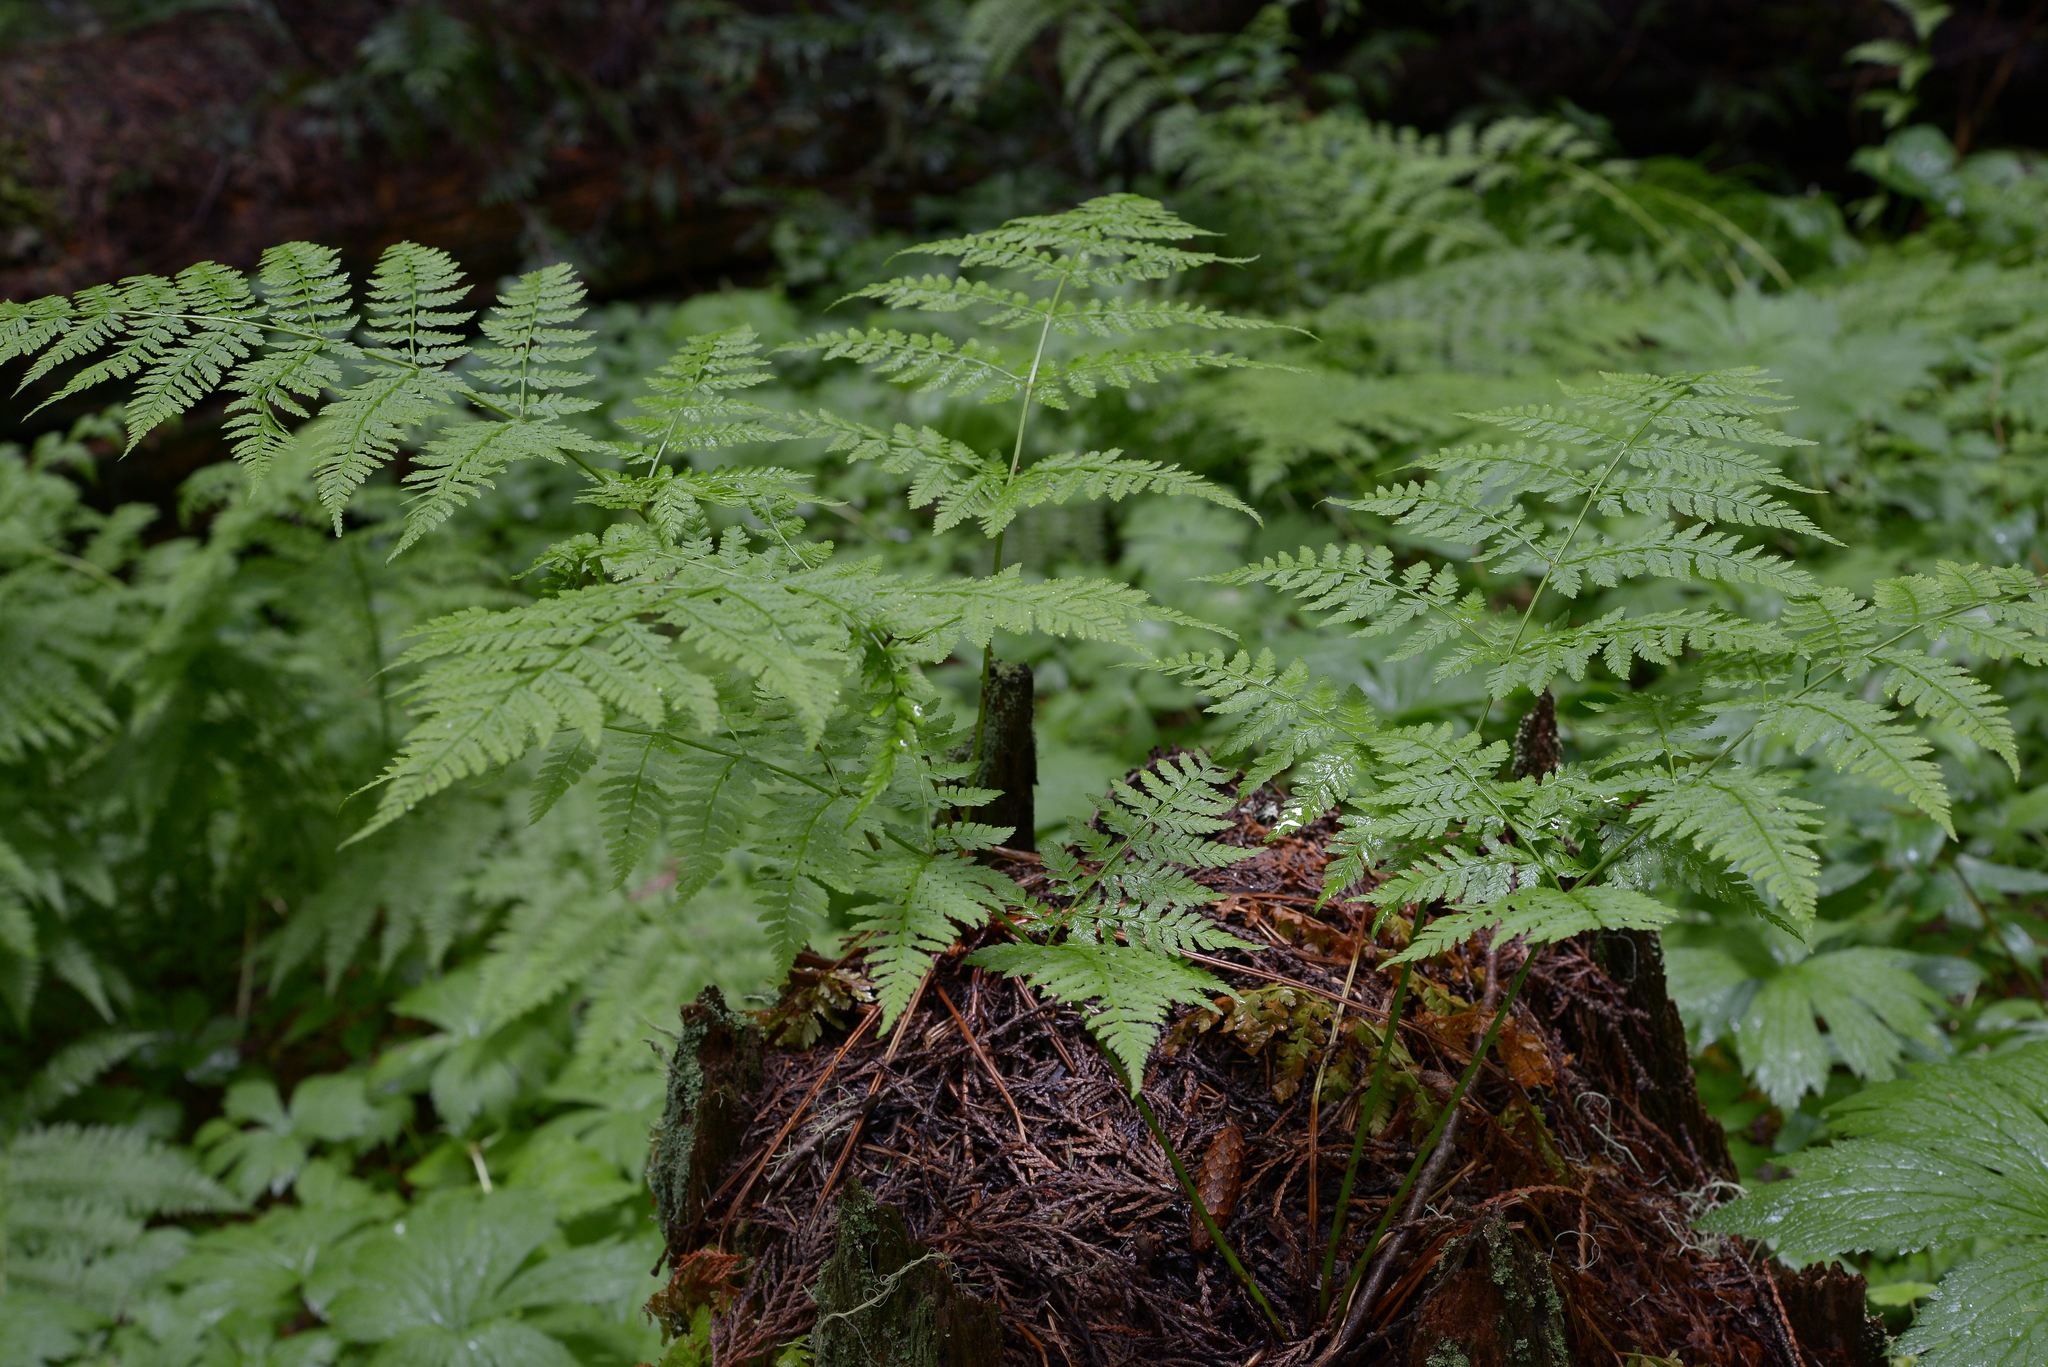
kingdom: Plantae
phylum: Tracheophyta
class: Polypodiopsida
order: Polypodiales
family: Dryopteridaceae
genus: Dryopteris
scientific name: Dryopteris expansa
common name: Northern buckler fern
